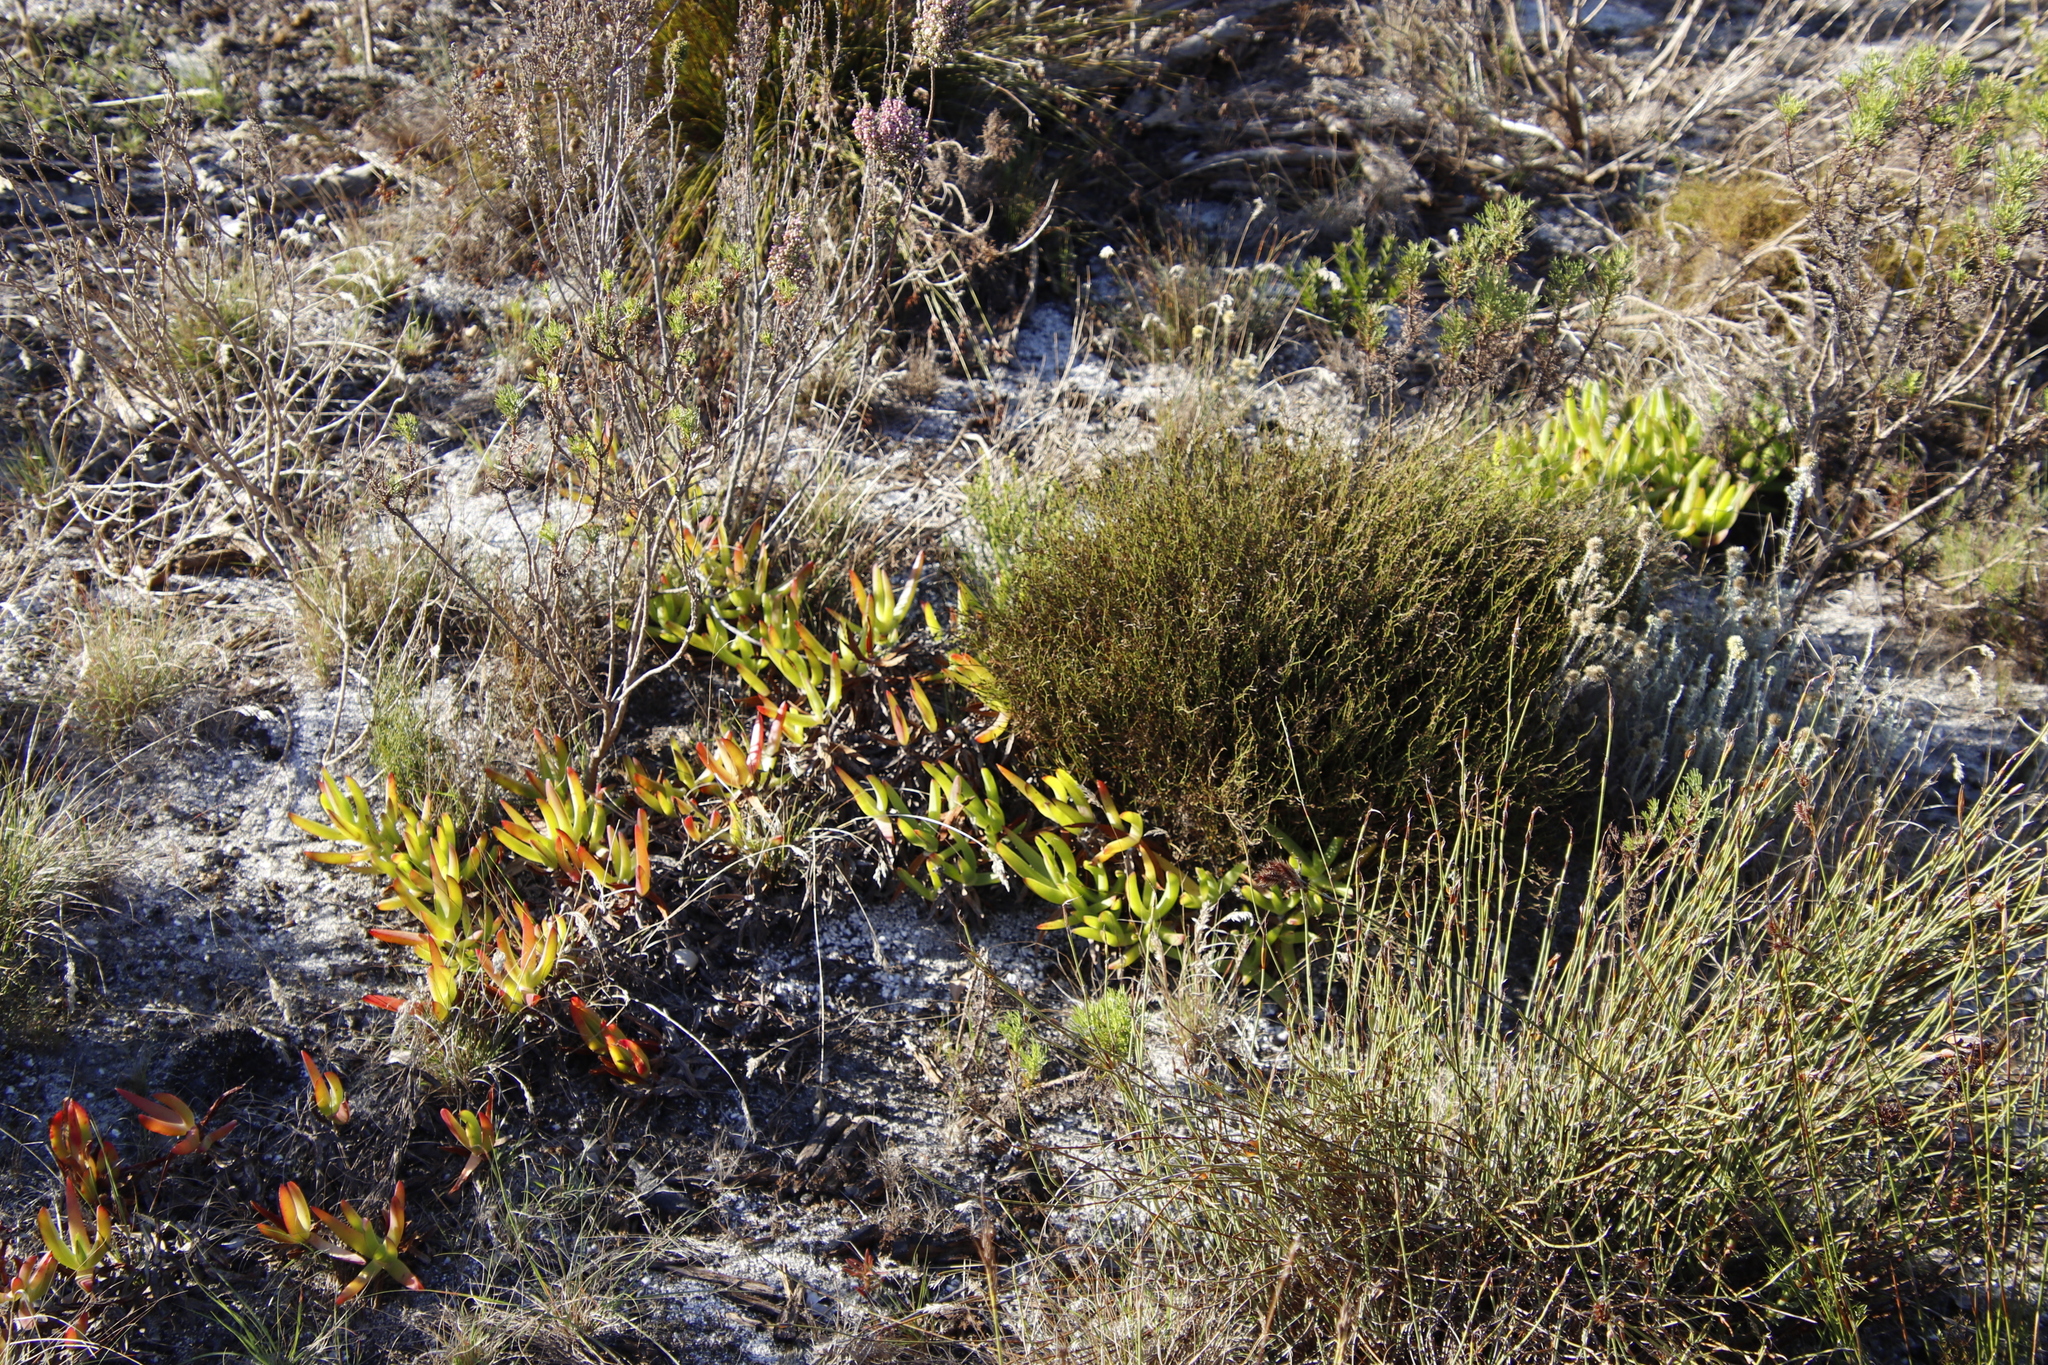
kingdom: Plantae
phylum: Tracheophyta
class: Magnoliopsida
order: Caryophyllales
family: Aizoaceae
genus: Carpobrotus
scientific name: Carpobrotus edulis
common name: Hottentot-fig
